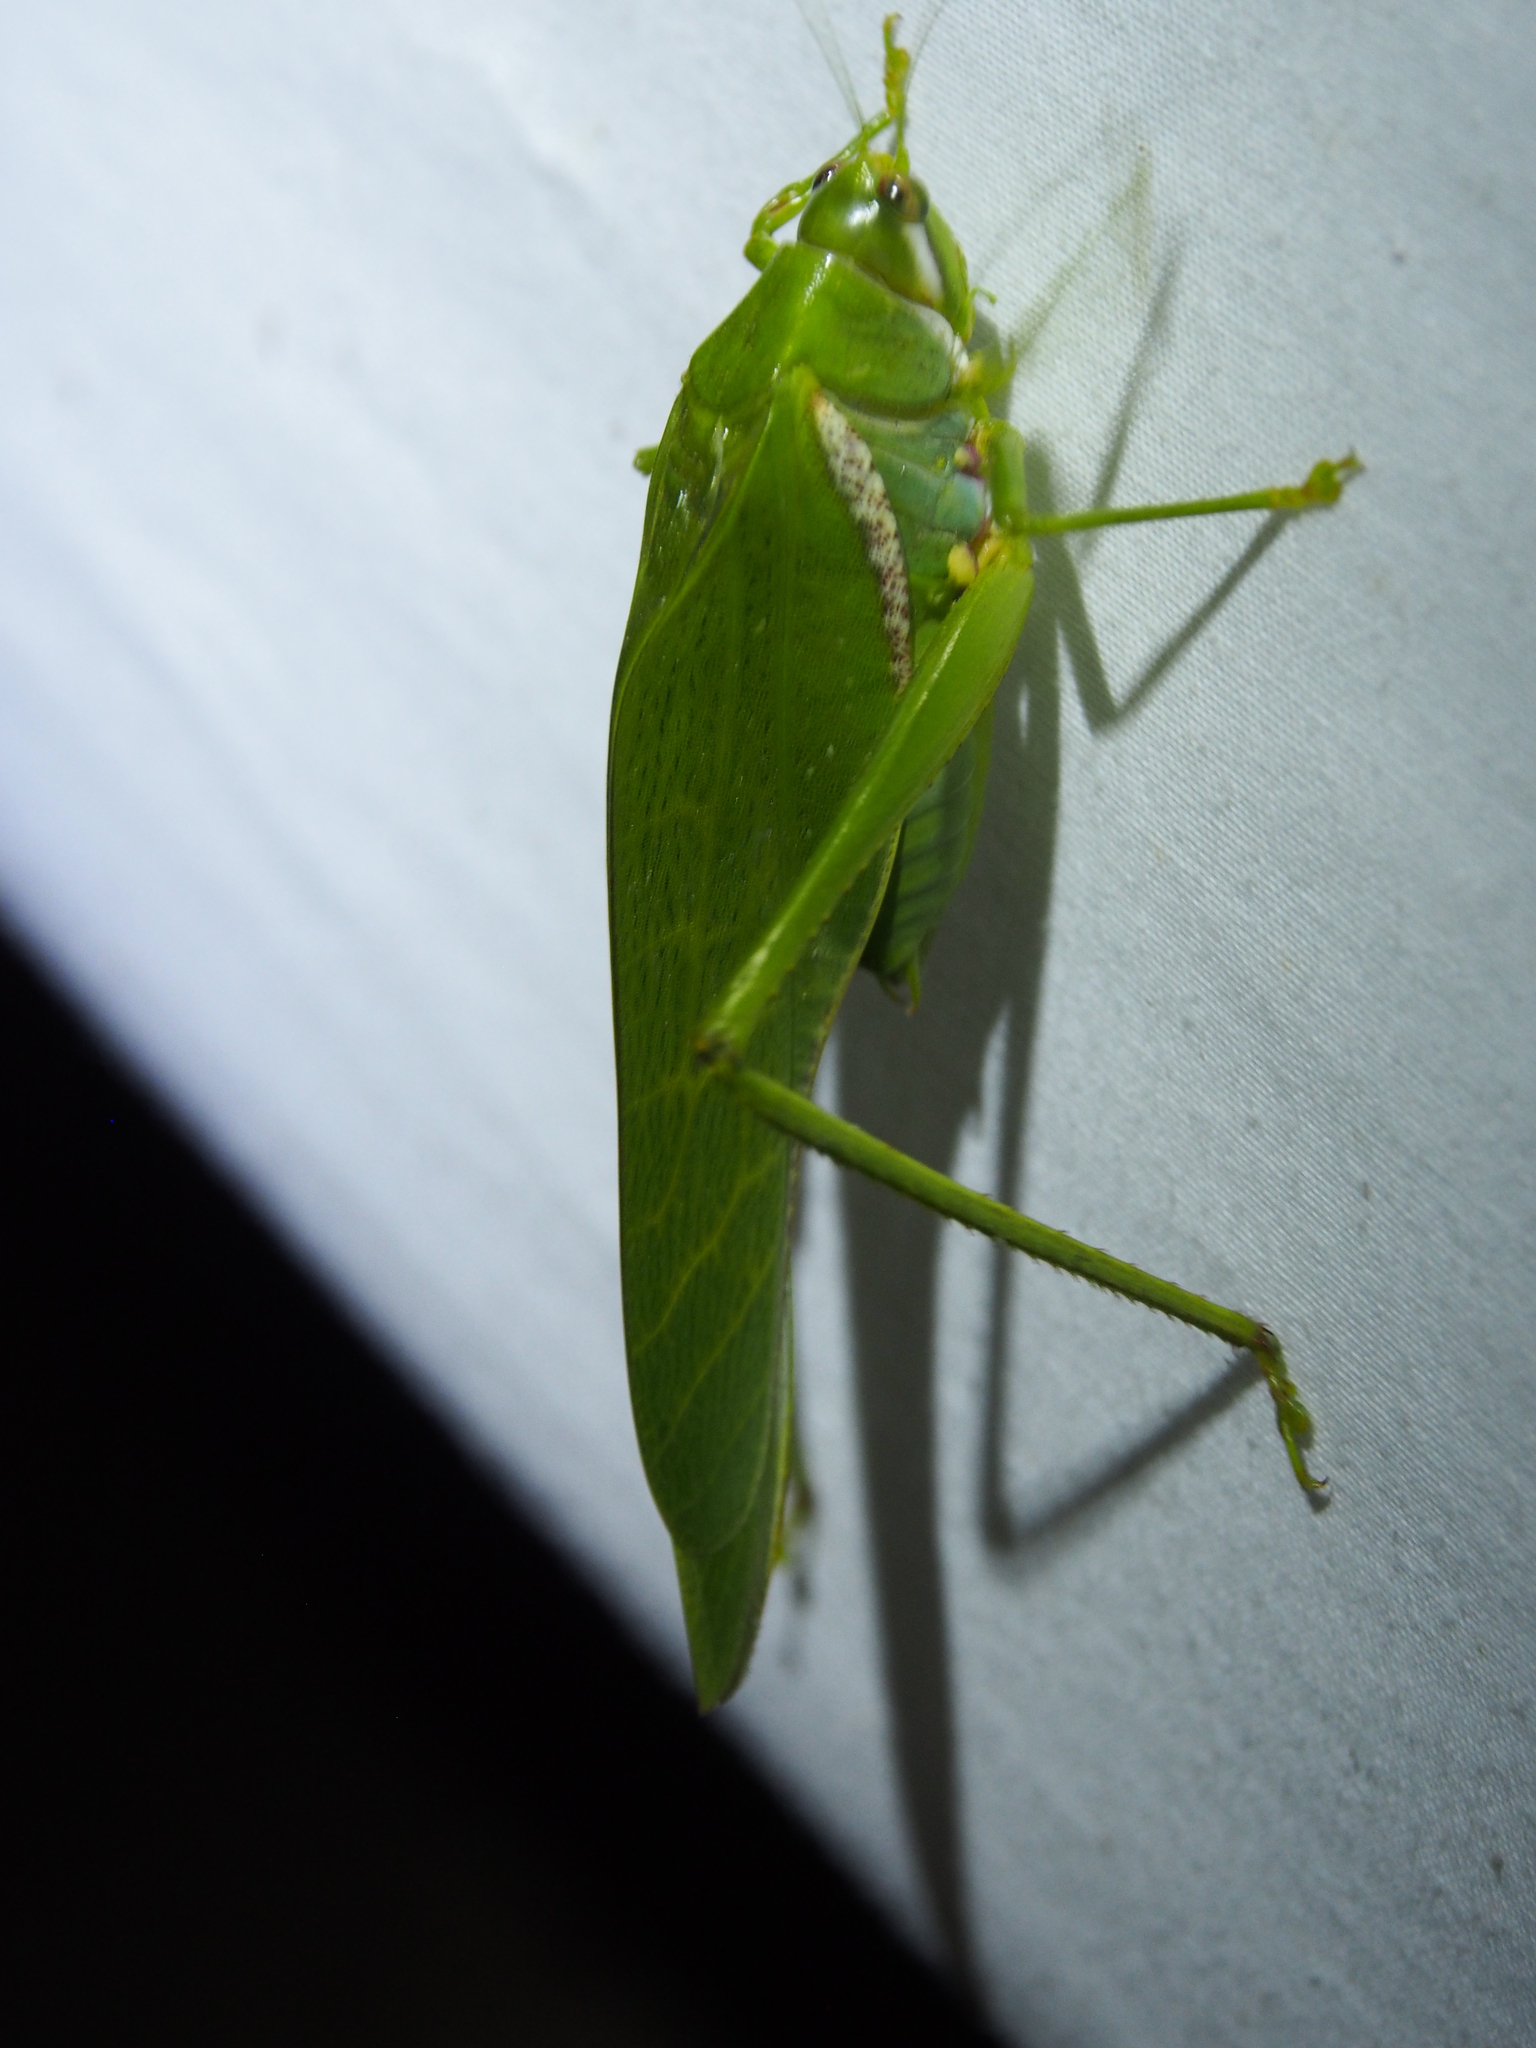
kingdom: Animalia
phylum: Arthropoda
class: Insecta
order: Orthoptera
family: Tettigoniidae
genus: Philophyllia
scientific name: Philophyllia guttulata
